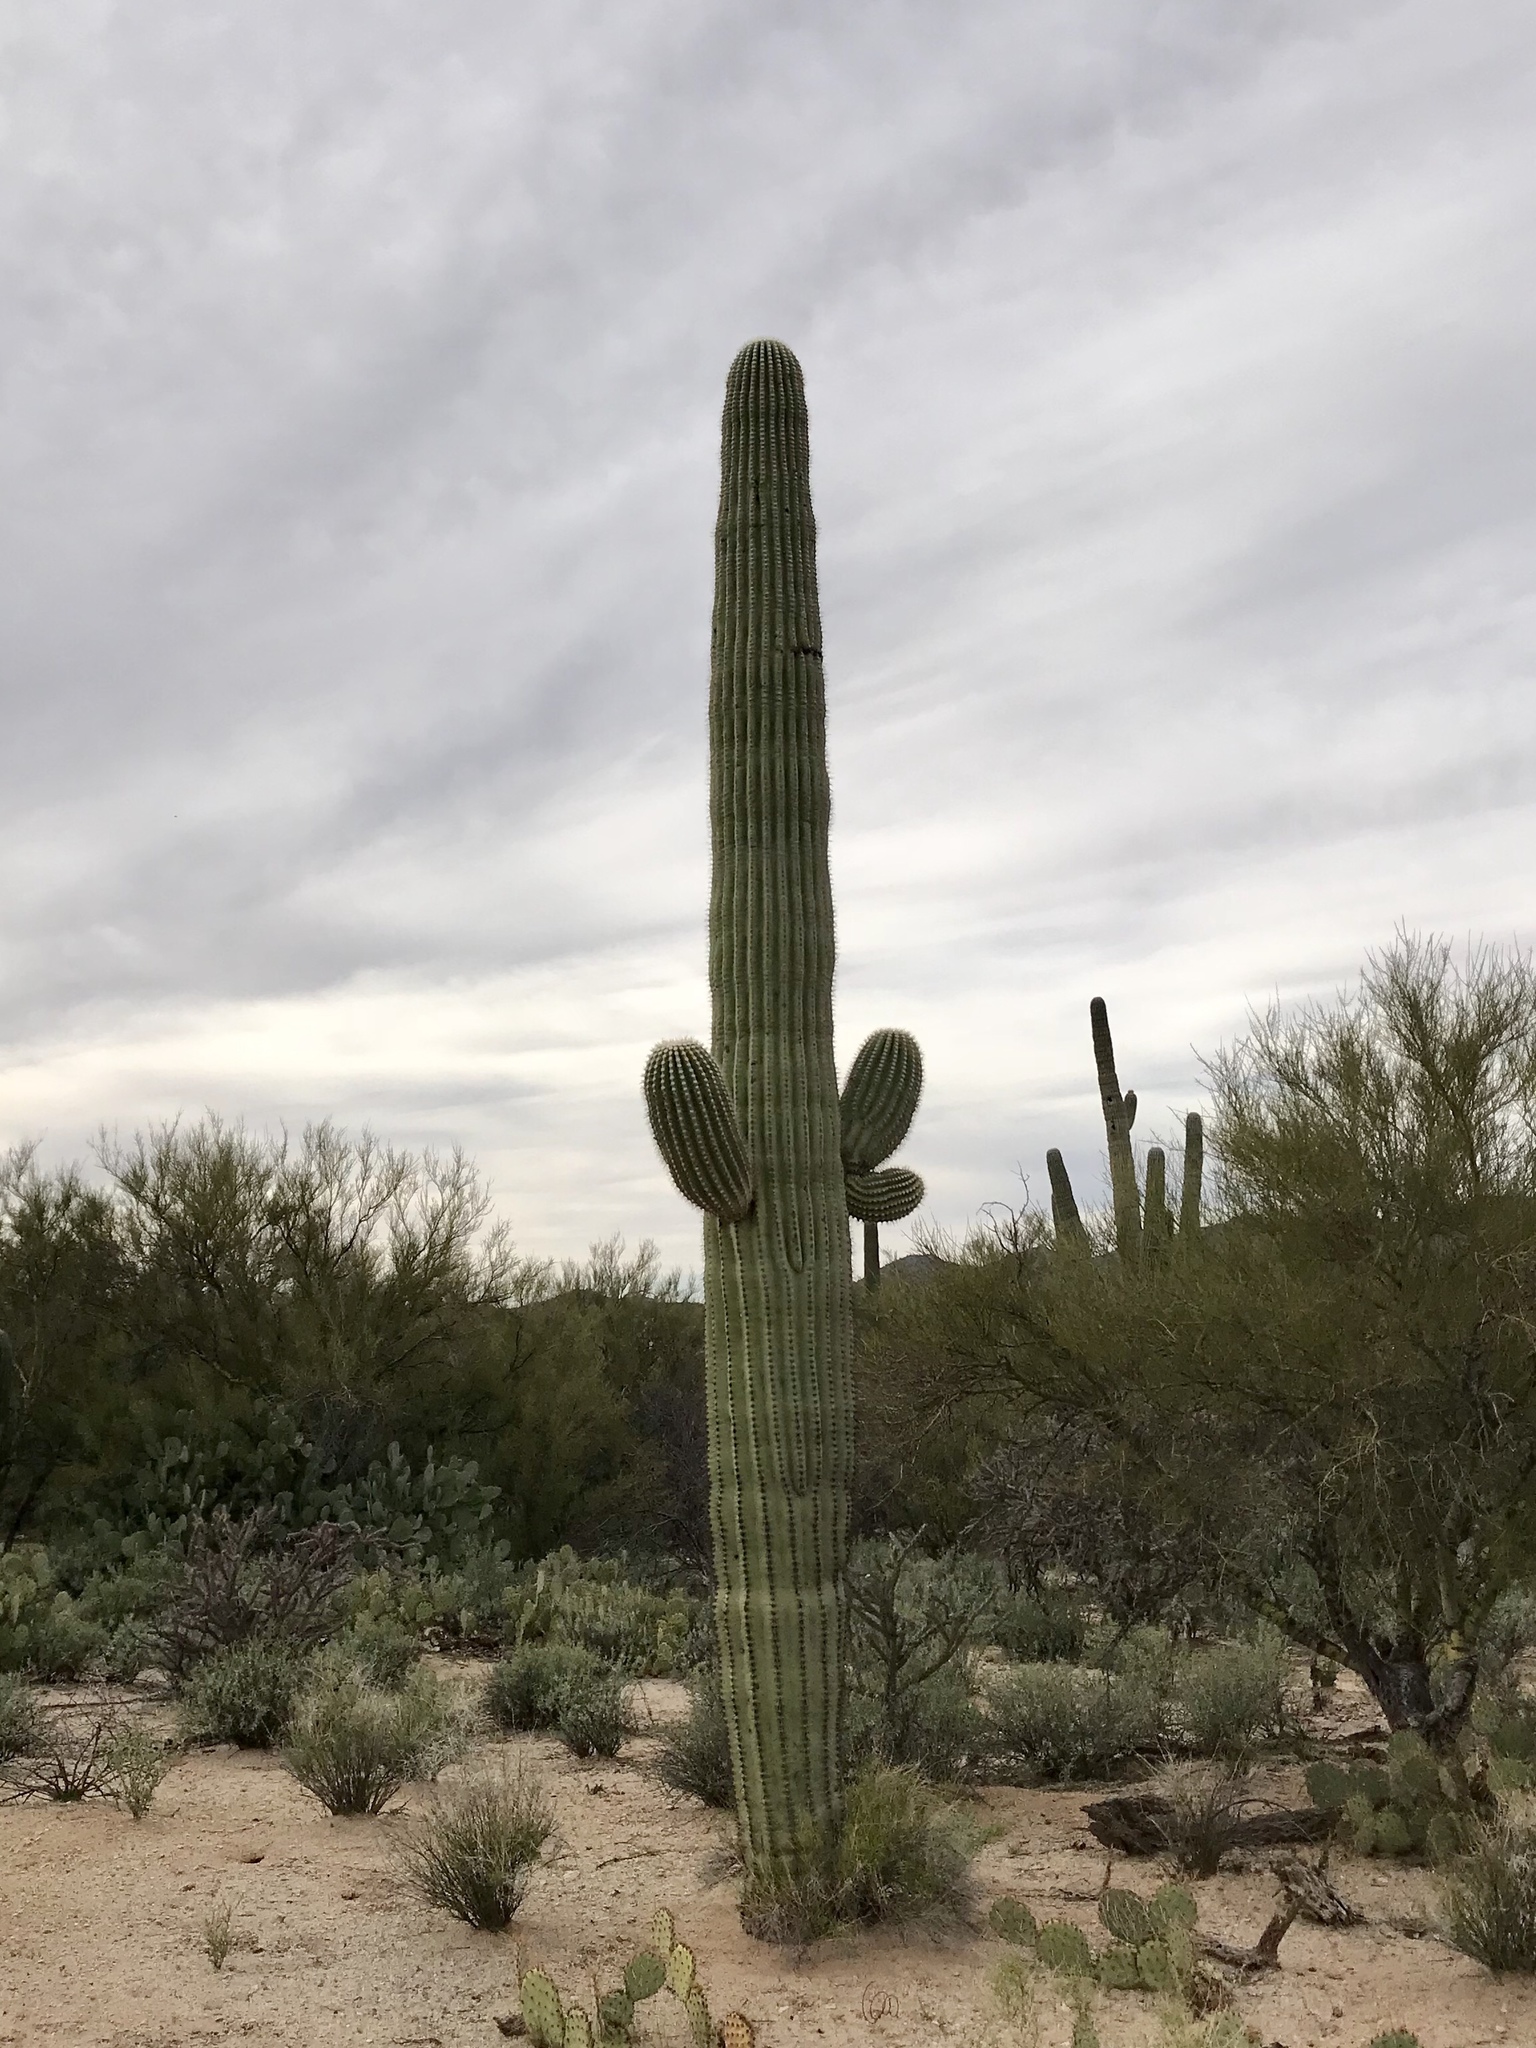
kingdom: Plantae
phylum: Tracheophyta
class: Magnoliopsida
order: Caryophyllales
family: Cactaceae
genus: Carnegiea
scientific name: Carnegiea gigantea
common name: Saguaro
